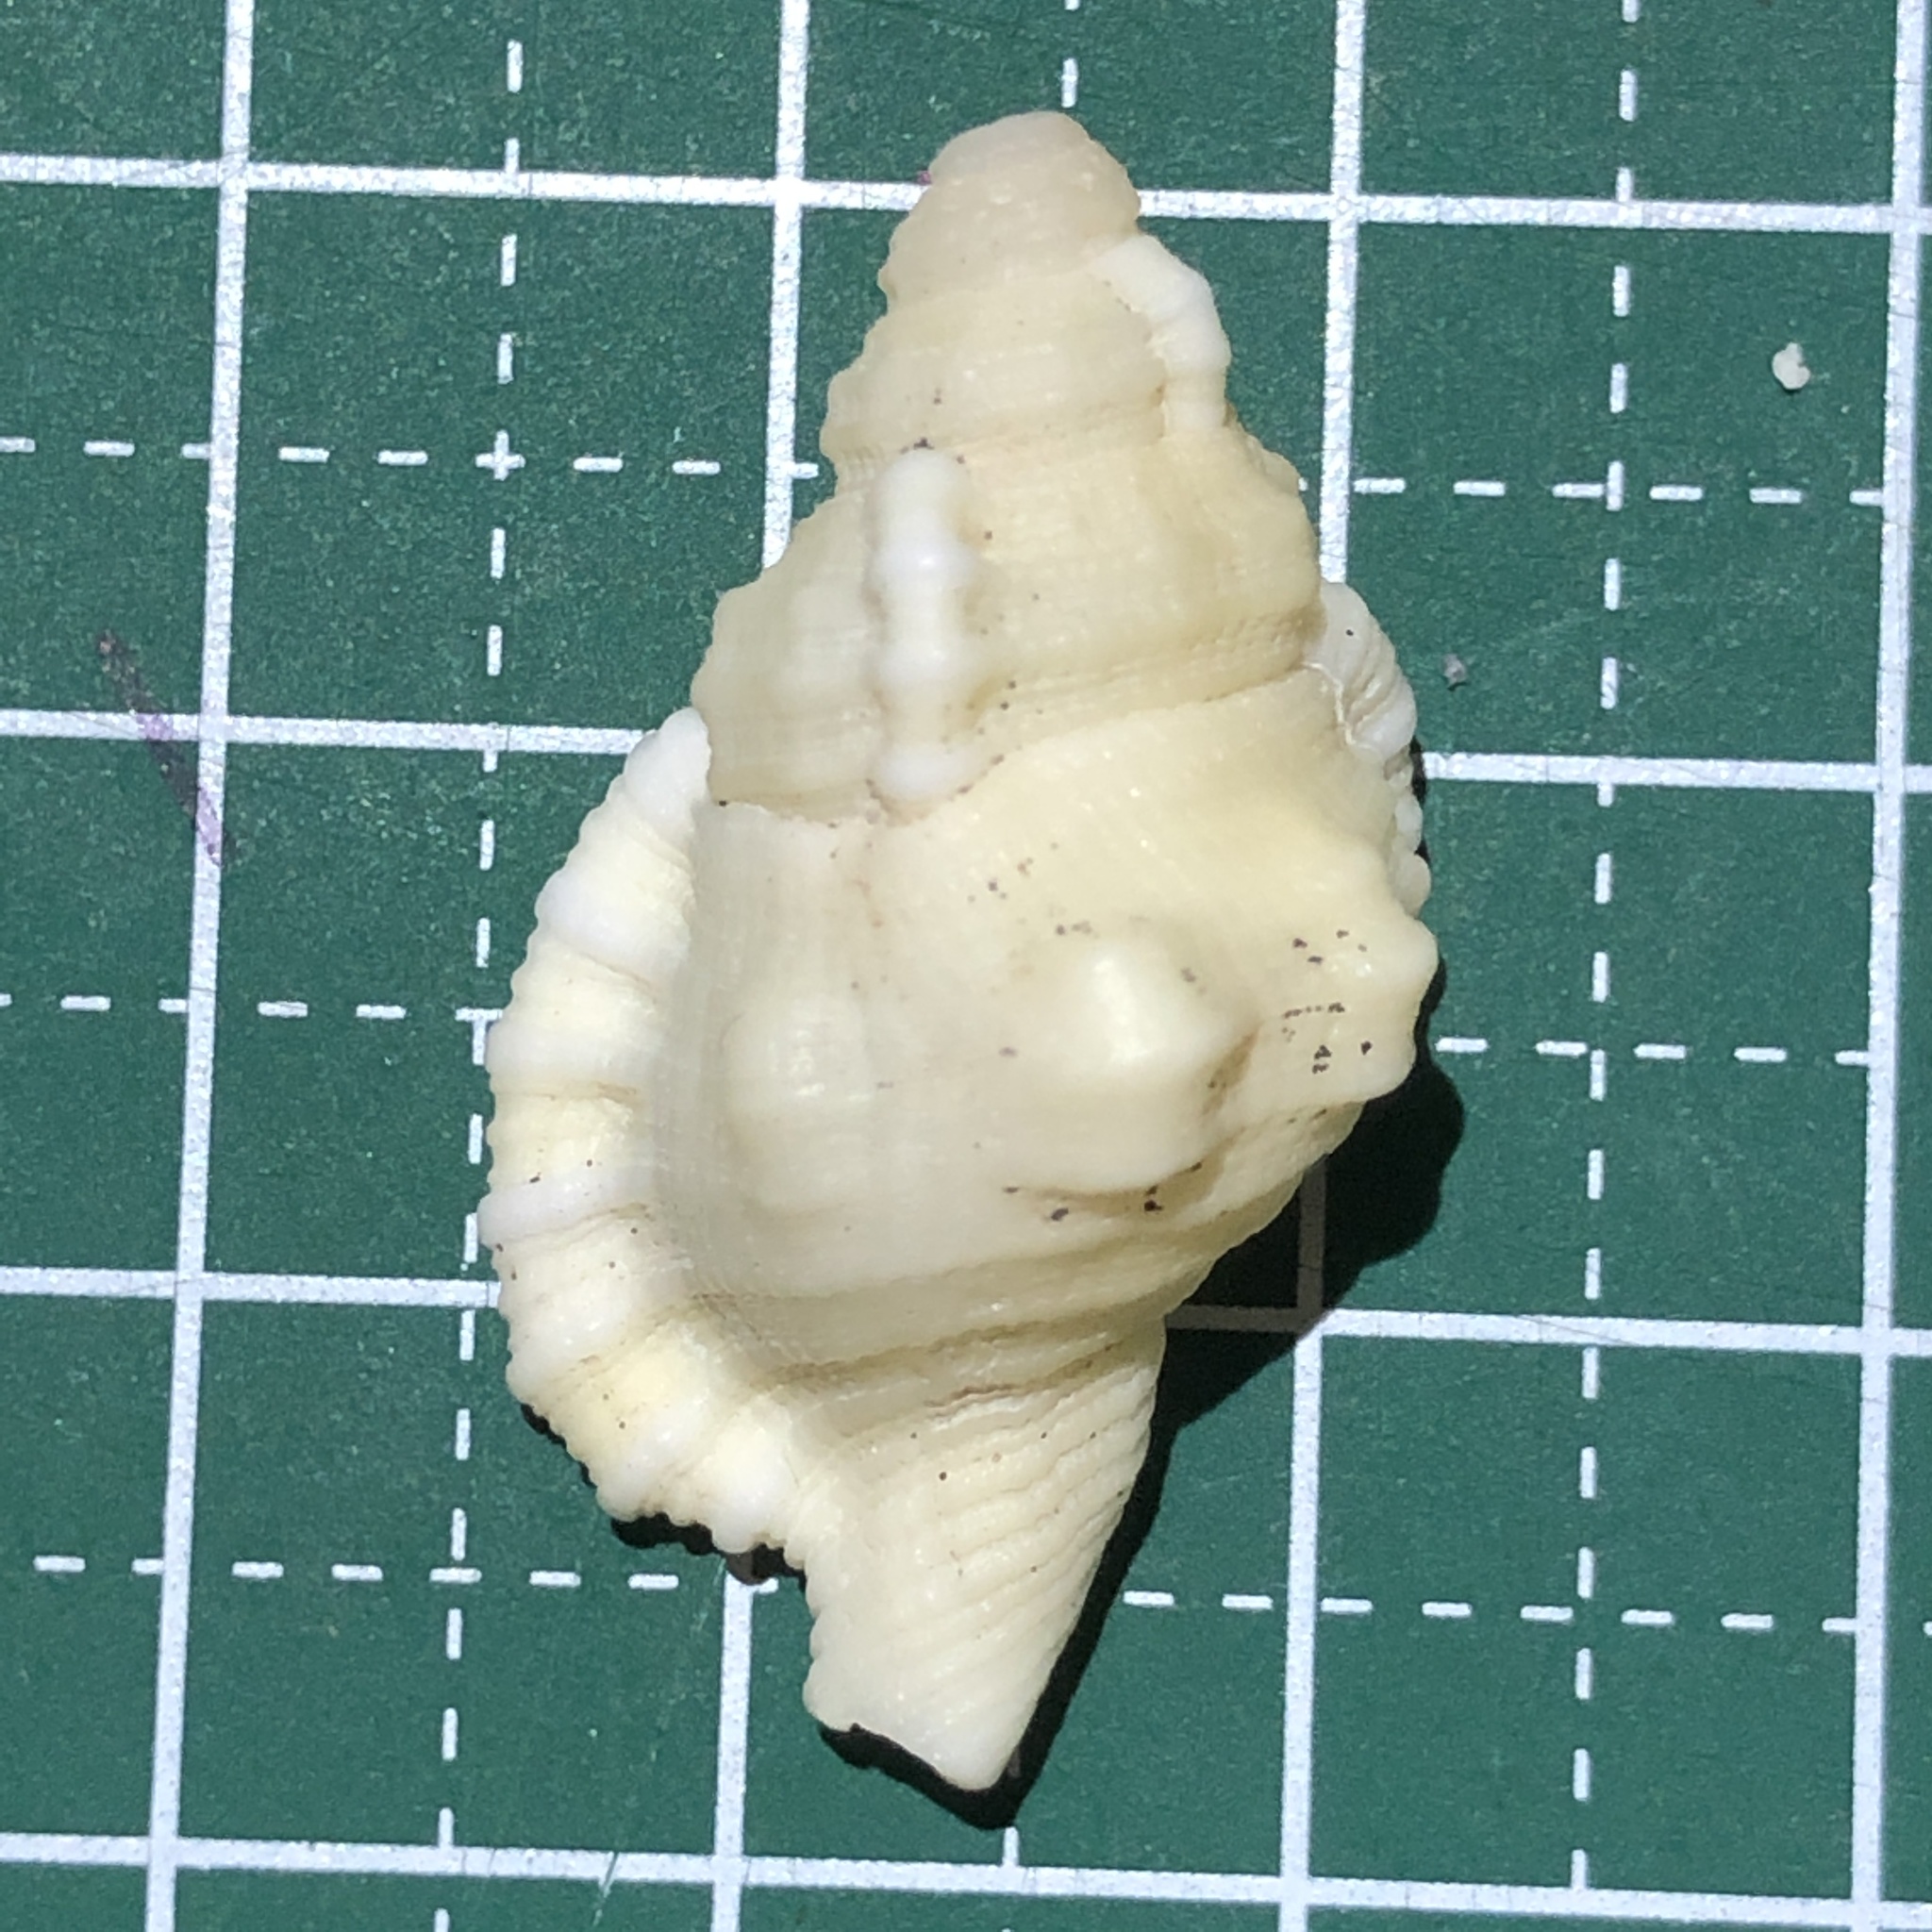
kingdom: Animalia
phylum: Mollusca
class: Gastropoda
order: Littorinimorpha
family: Cymatiidae
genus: Monoplex
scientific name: Monoplex mundus
